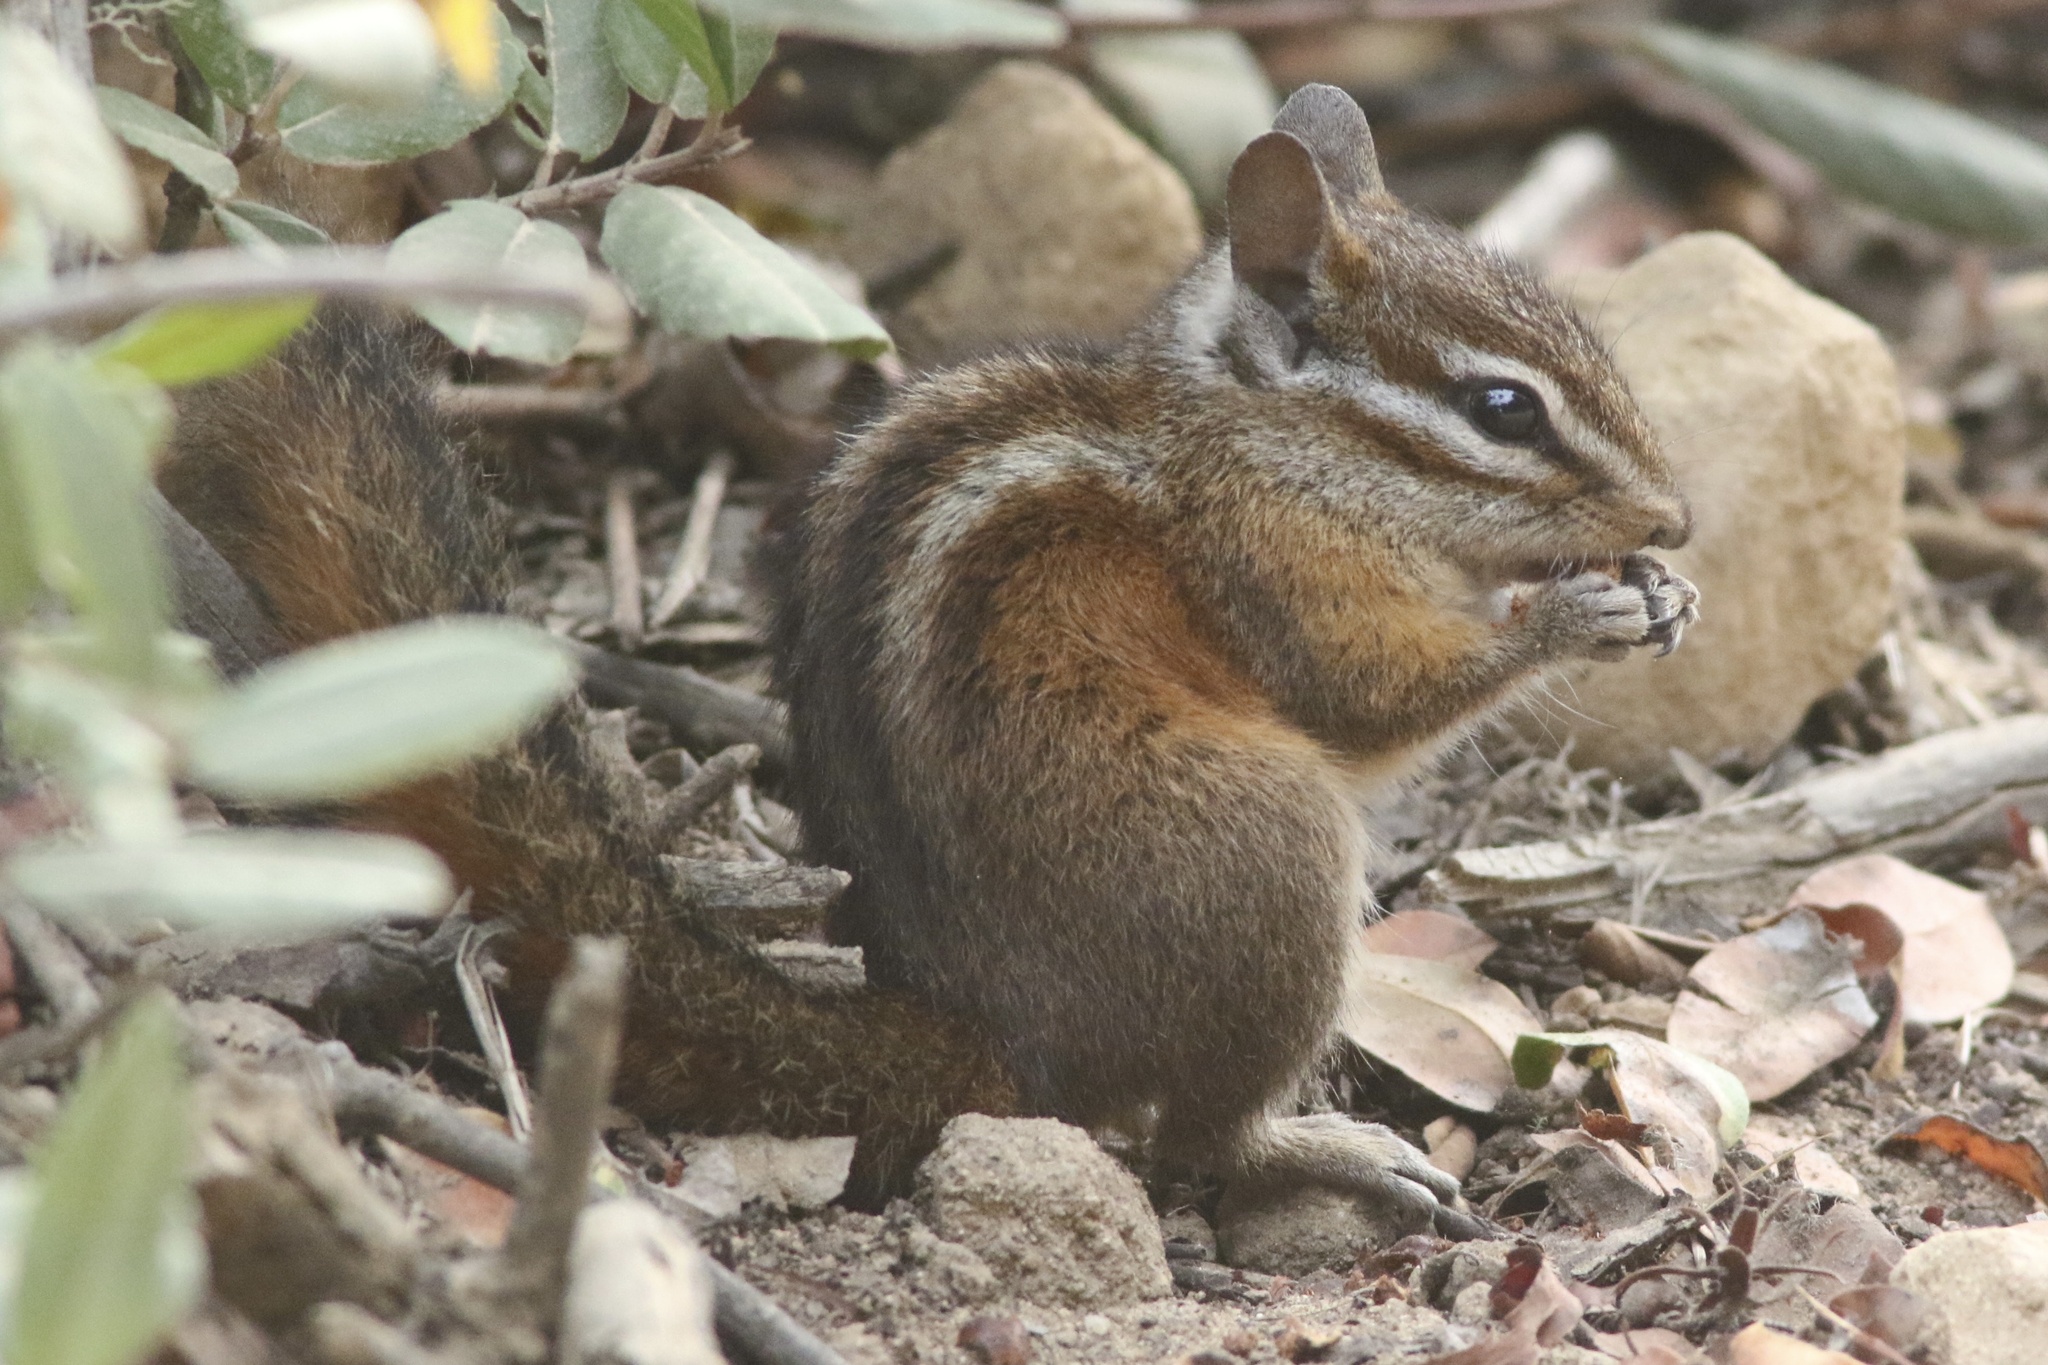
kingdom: Animalia
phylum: Chordata
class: Mammalia
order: Rodentia
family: Sciuridae
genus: Tamias
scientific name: Tamias merriami
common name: Merriam's chipmunk
